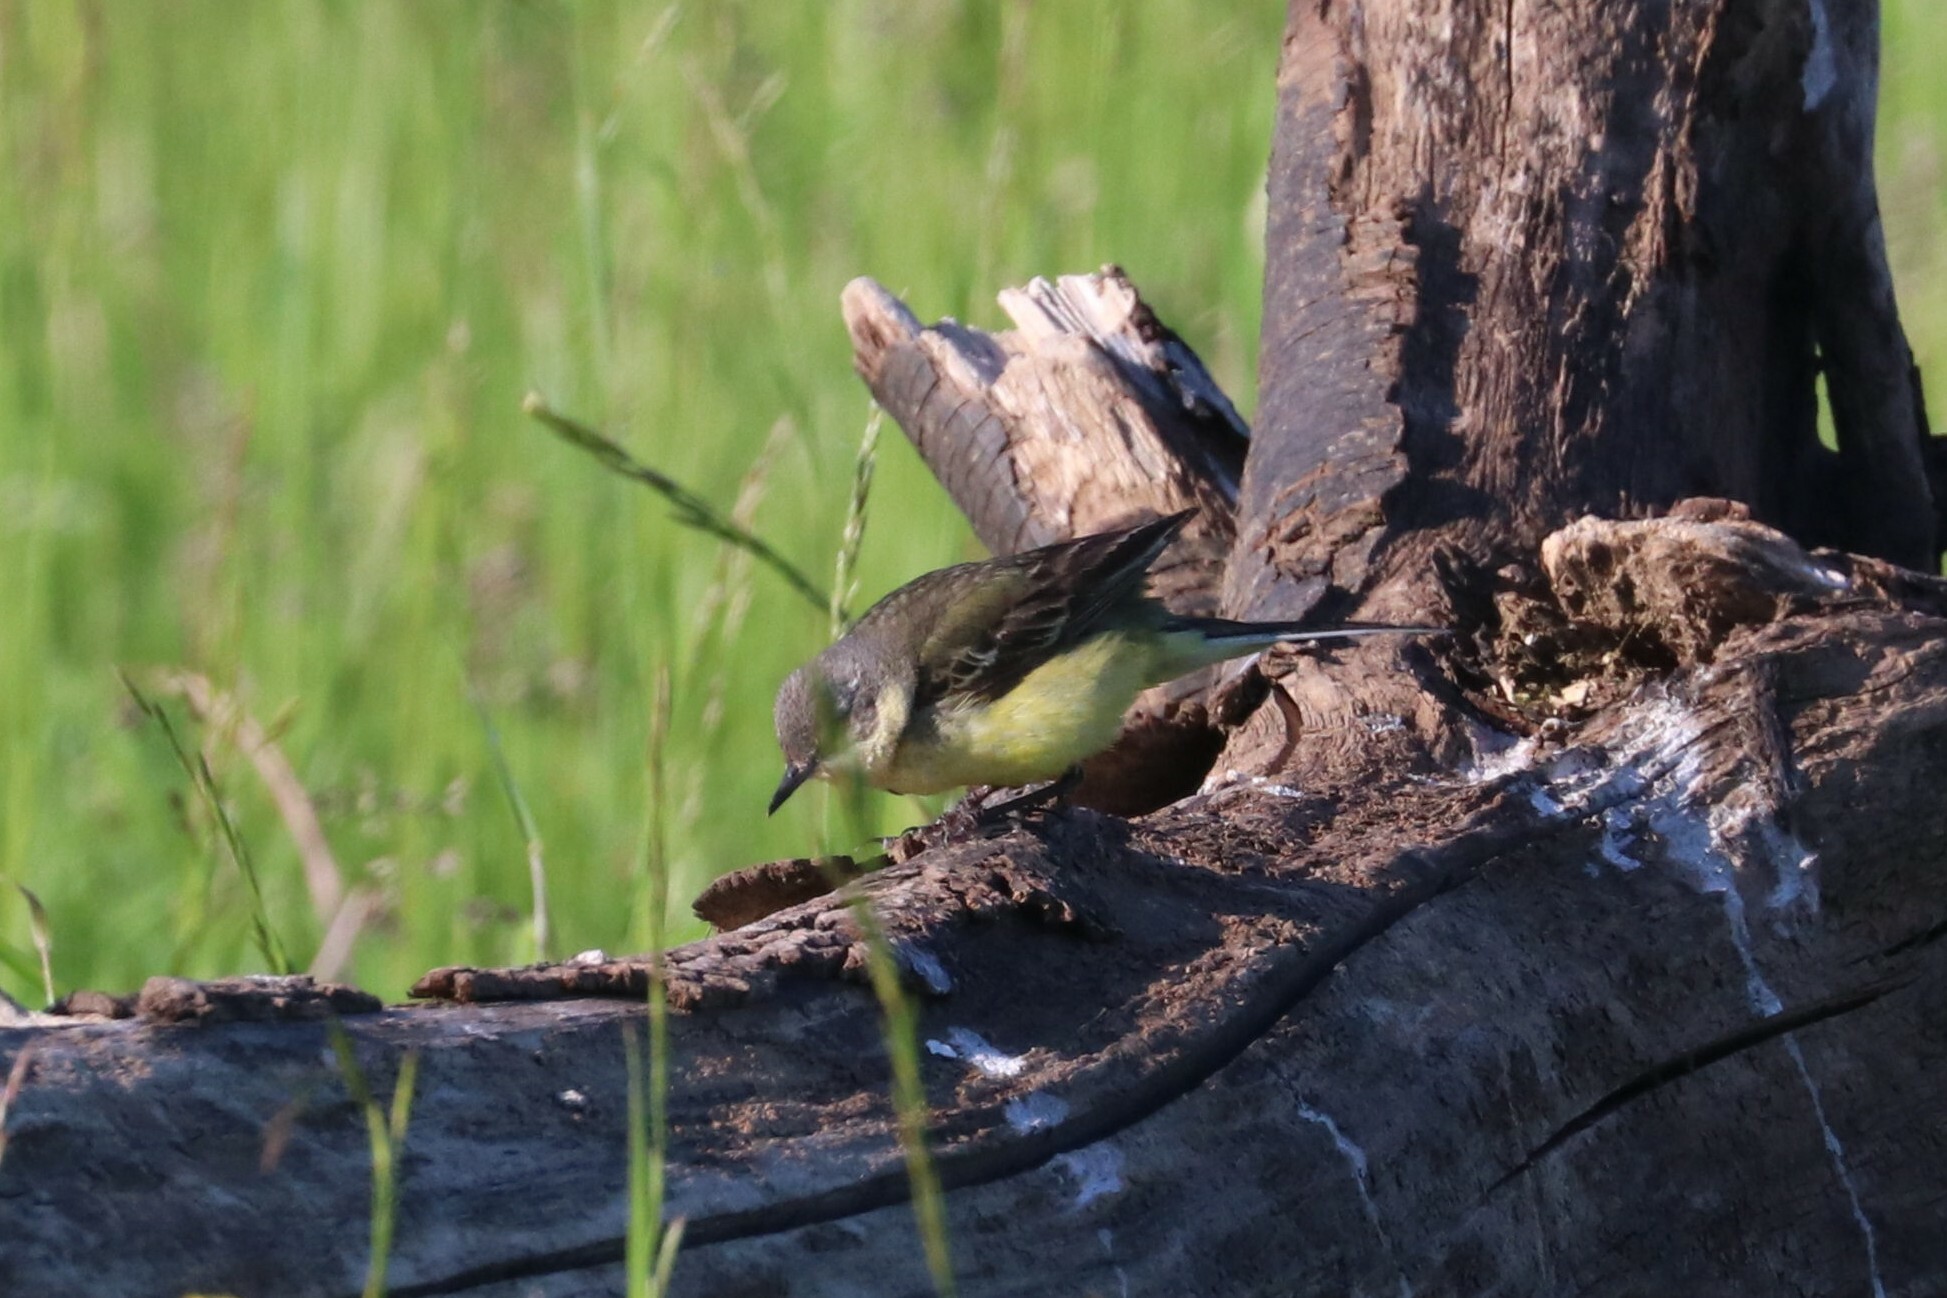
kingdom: Animalia
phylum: Chordata
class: Aves
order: Passeriformes
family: Motacillidae
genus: Motacilla
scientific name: Motacilla flava
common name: Western yellow wagtail
